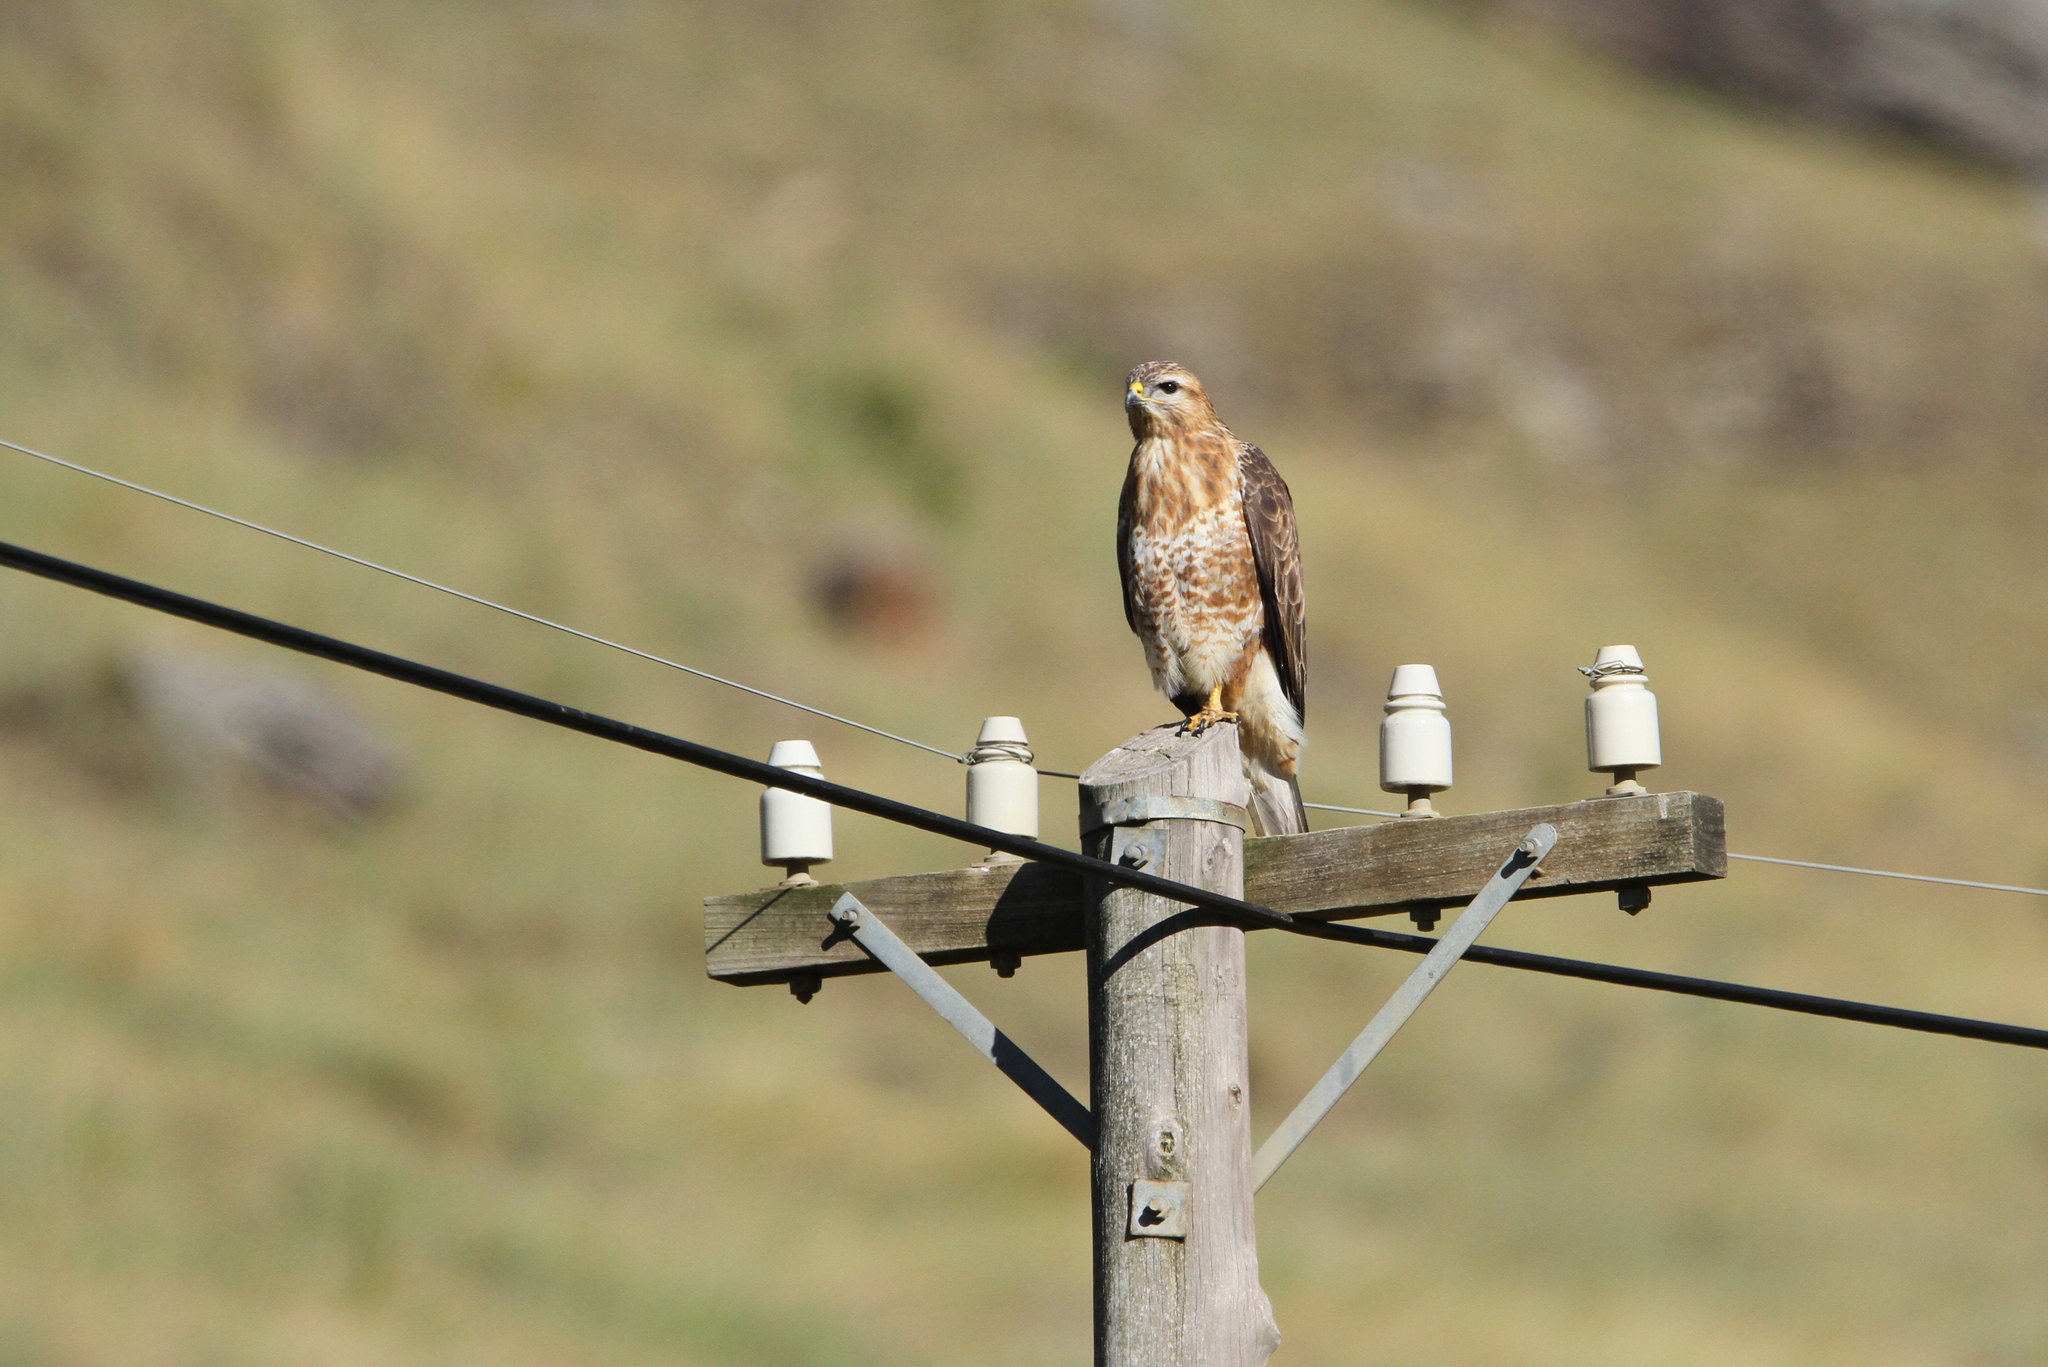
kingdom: Animalia
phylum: Chordata
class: Aves
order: Accipitriformes
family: Accipitridae
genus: Buteo
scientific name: Buteo buteo
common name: Common buzzard
